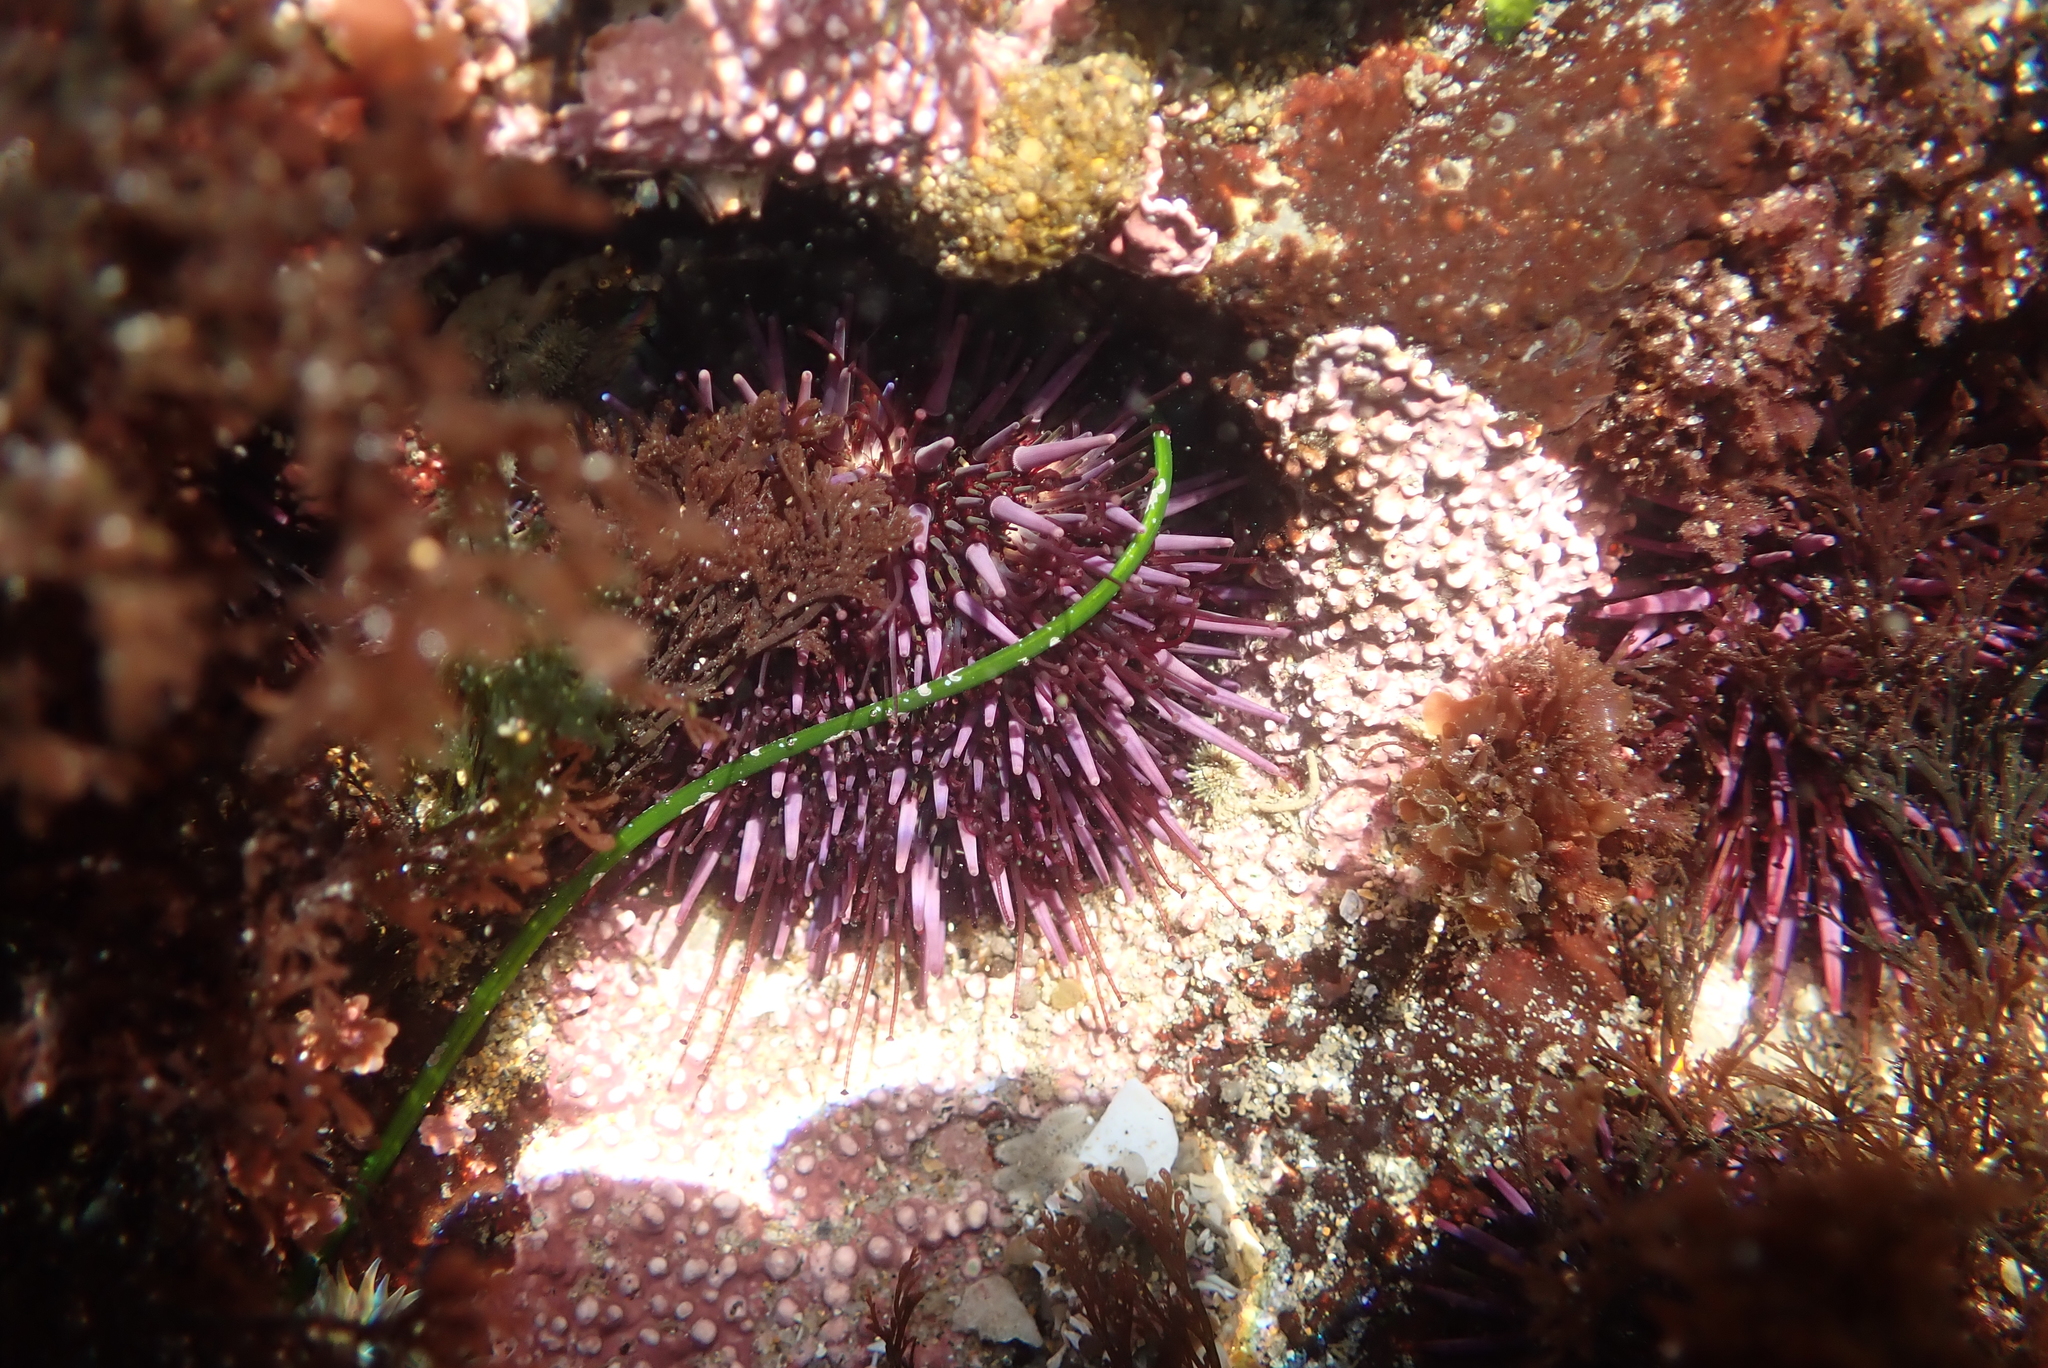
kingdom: Animalia
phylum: Echinodermata
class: Echinoidea
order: Camarodonta
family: Strongylocentrotidae
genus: Strongylocentrotus
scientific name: Strongylocentrotus purpuratus
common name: Purple sea urchin
